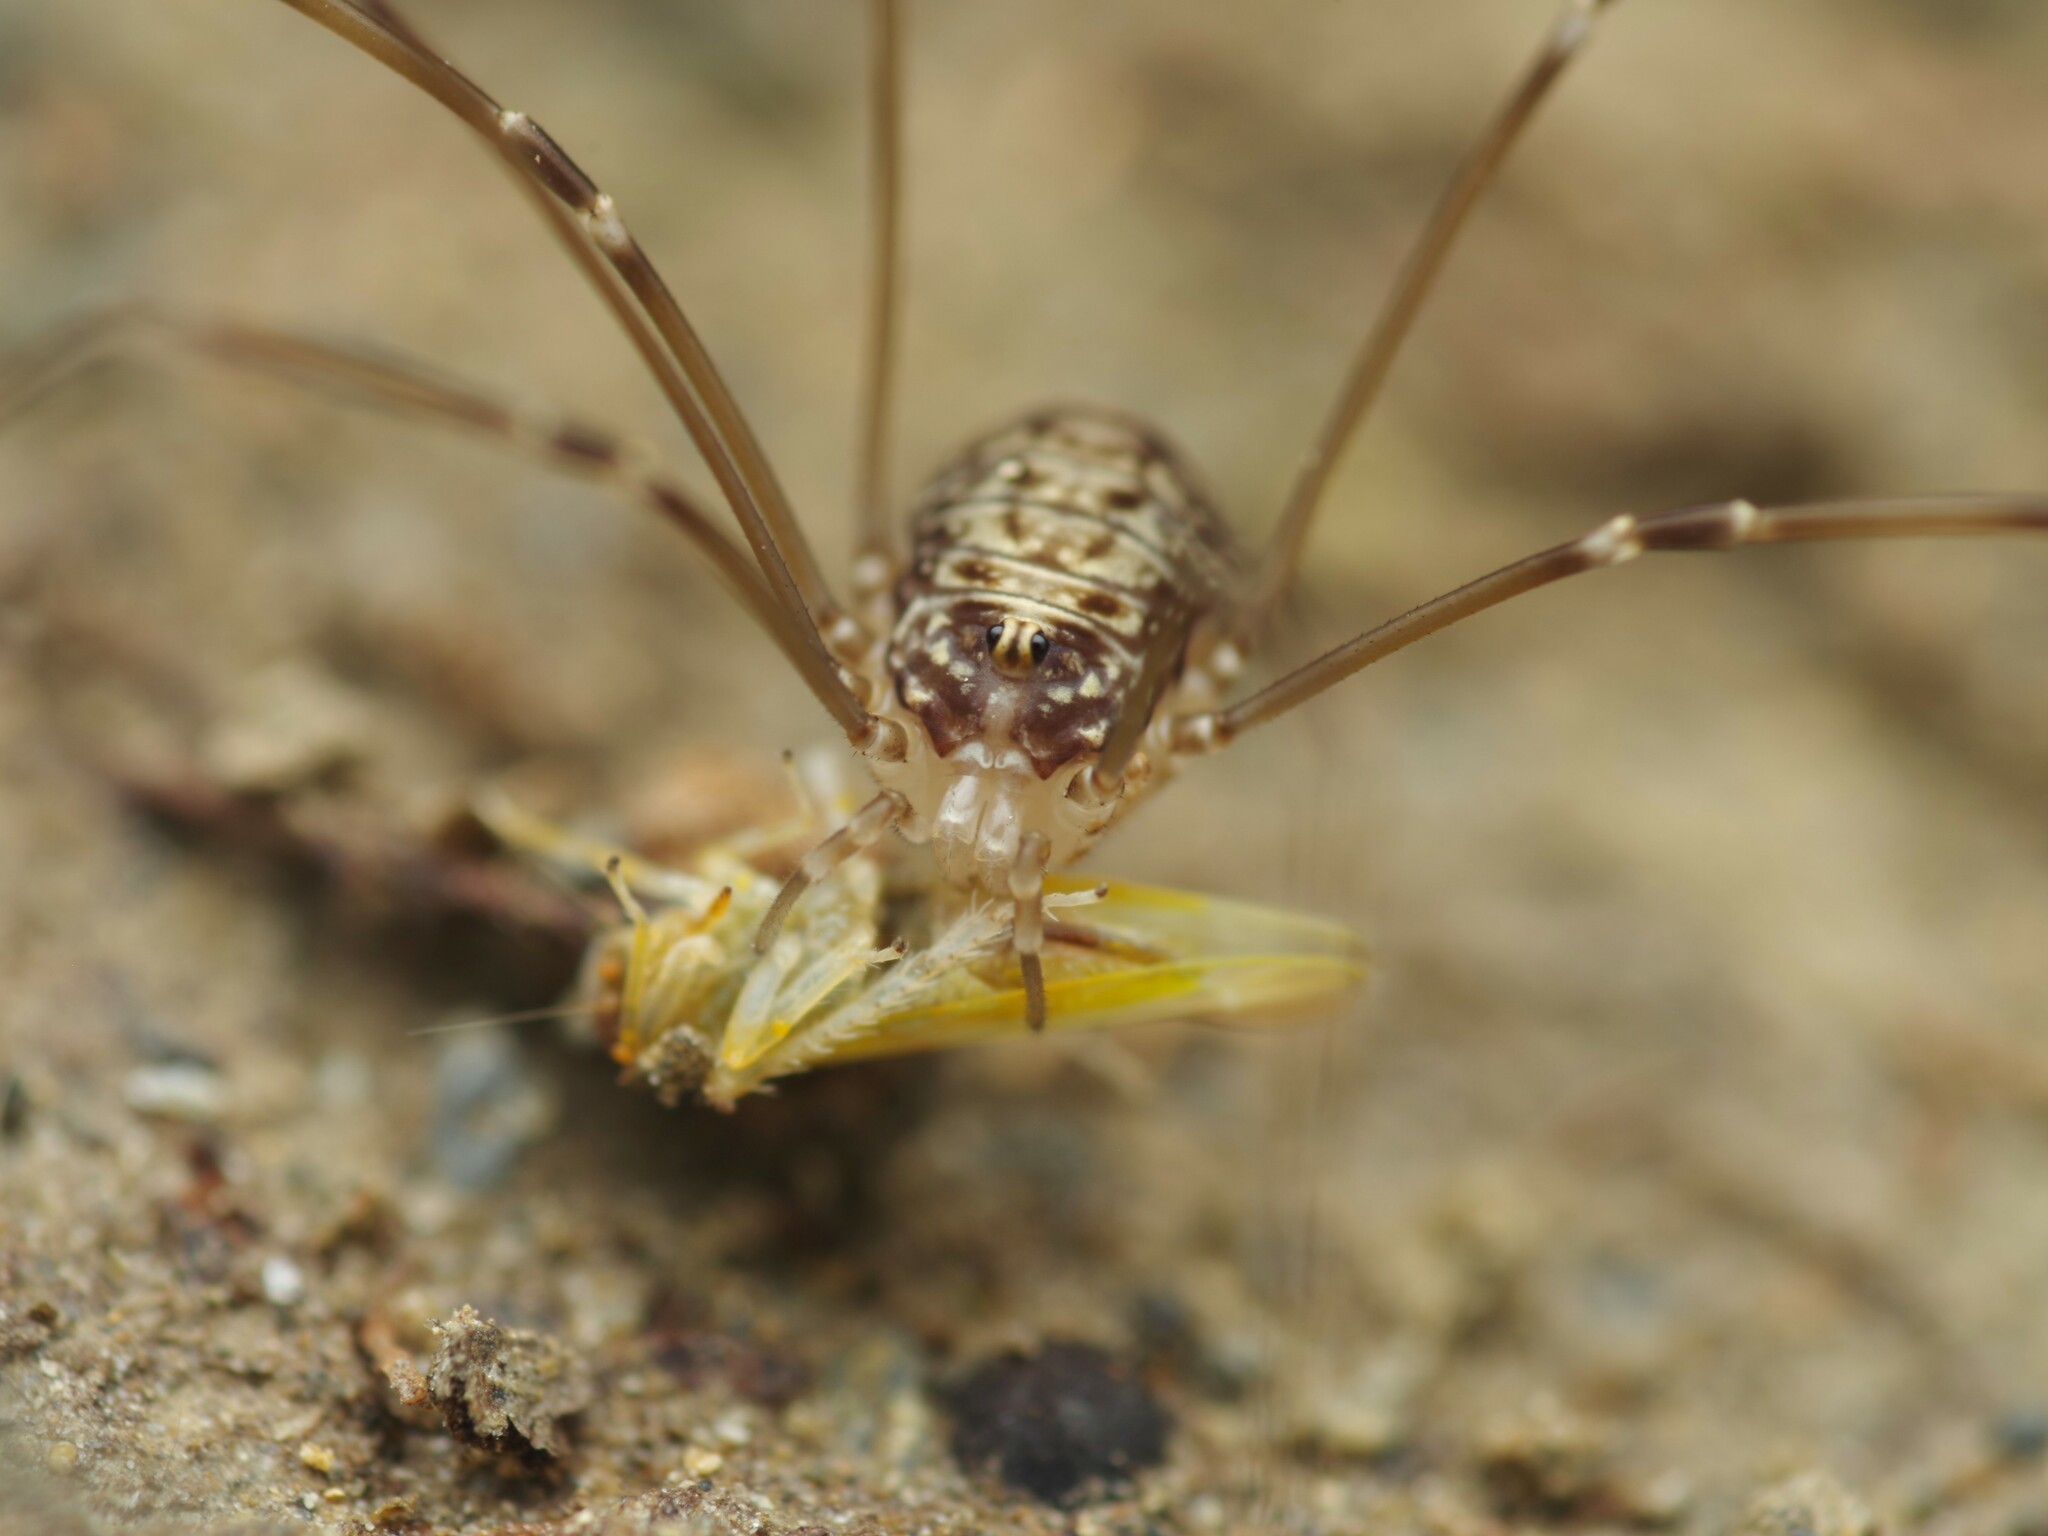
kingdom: Animalia
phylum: Arthropoda
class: Arachnida
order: Opiliones
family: Sclerosomatidae
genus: Leiobunum
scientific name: Leiobunum blackwalli
